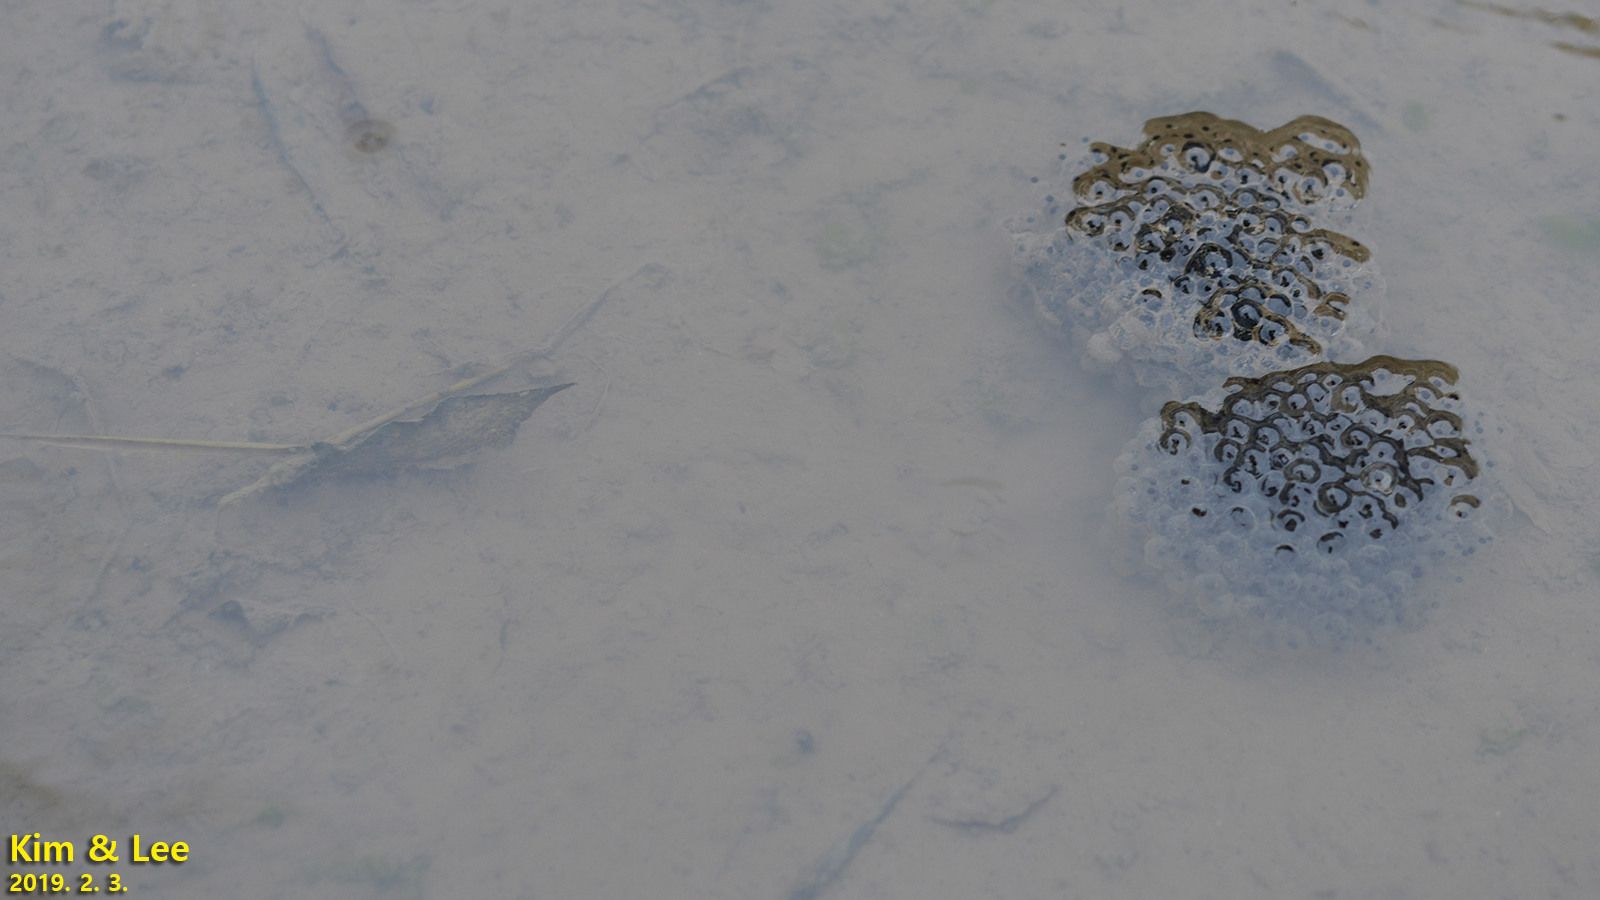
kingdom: Animalia
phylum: Chordata
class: Amphibia
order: Anura
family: Ranidae
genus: Rana
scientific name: Rana uenoi
